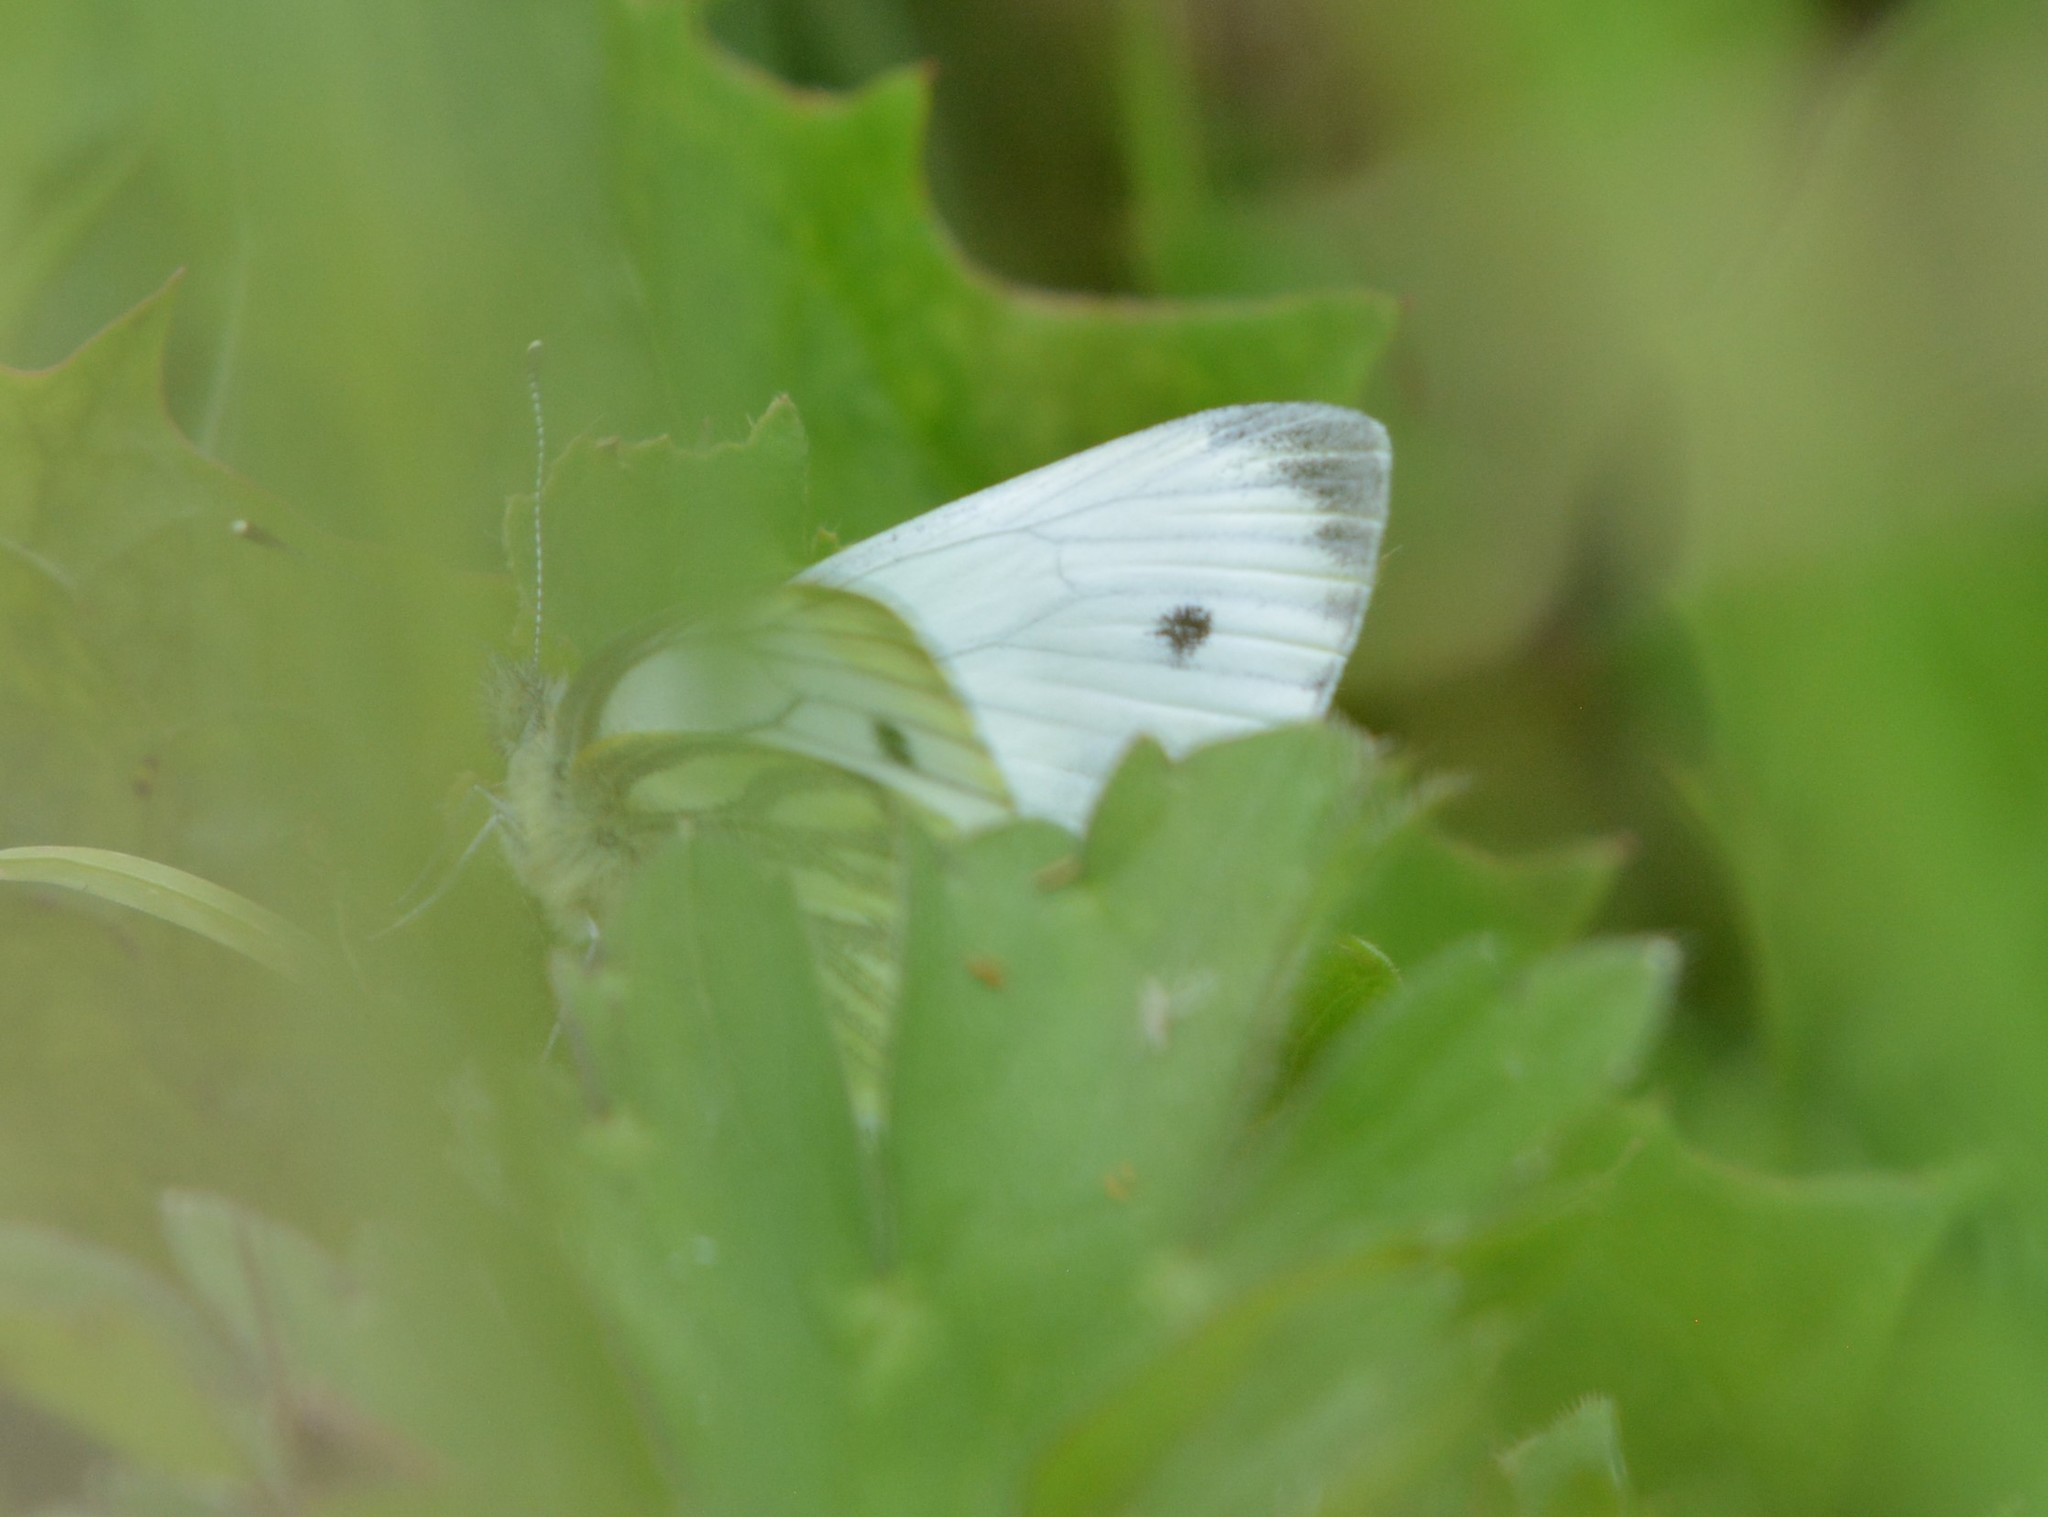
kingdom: Animalia
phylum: Arthropoda
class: Insecta
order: Lepidoptera
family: Pieridae
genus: Pieris
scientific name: Pieris napi
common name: Green-veined white
